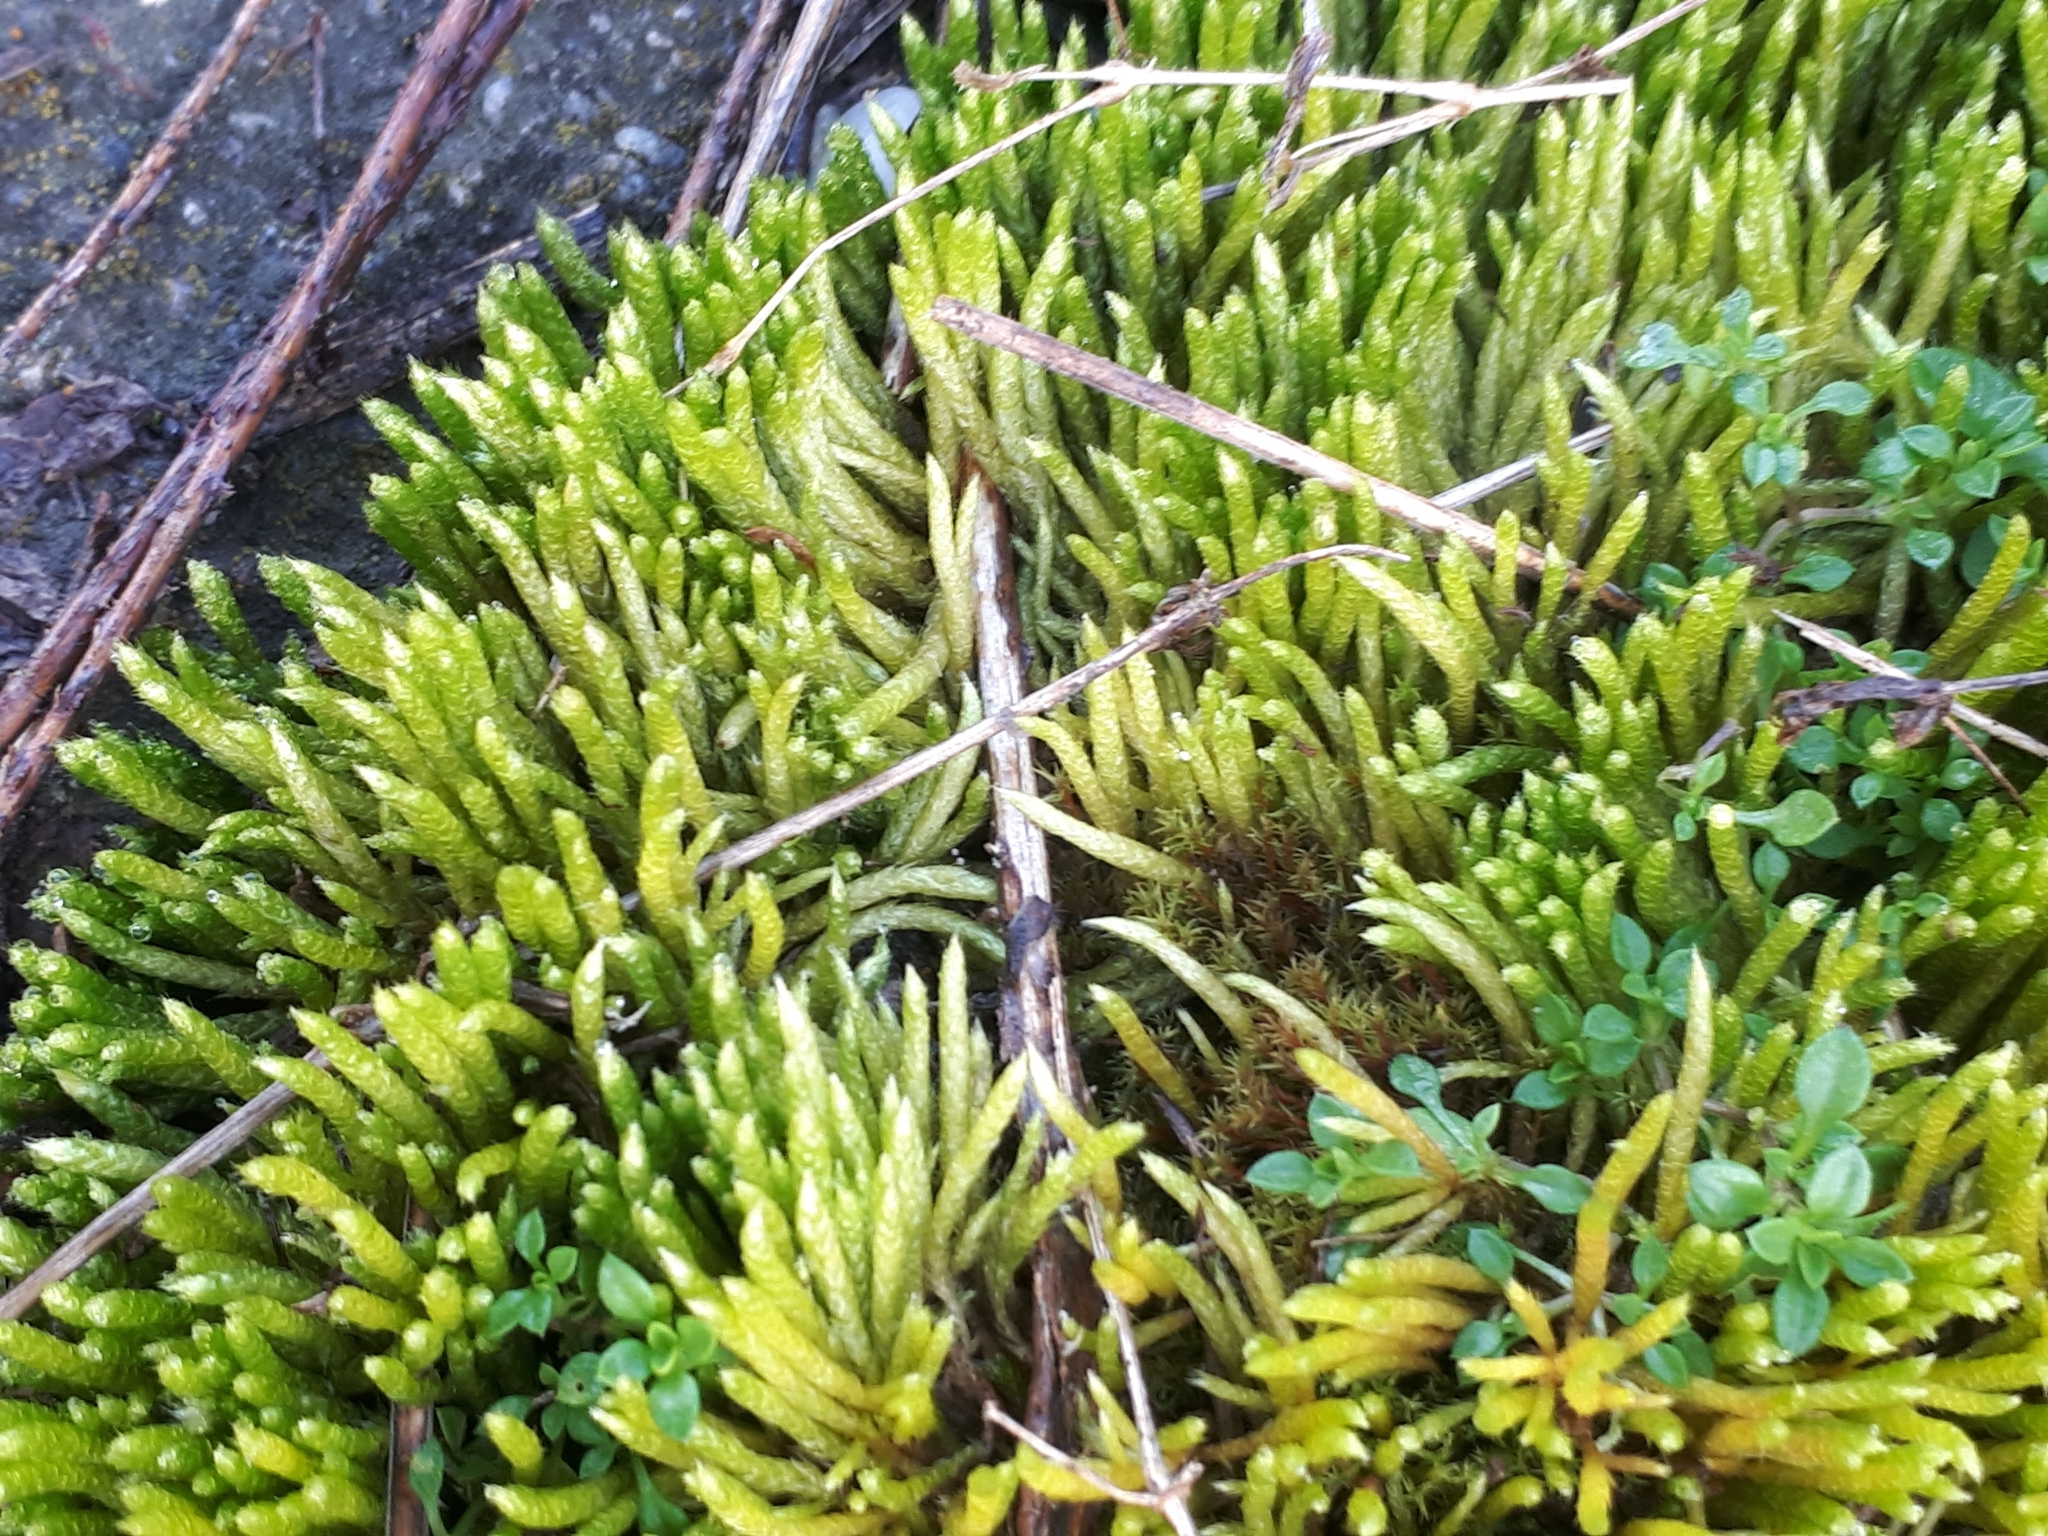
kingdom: Plantae
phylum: Bryophyta
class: Bryopsida
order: Hypnales
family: Brachytheciaceae
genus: Brachythecium
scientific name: Brachythecium albicans
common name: Whitish ragged moss
